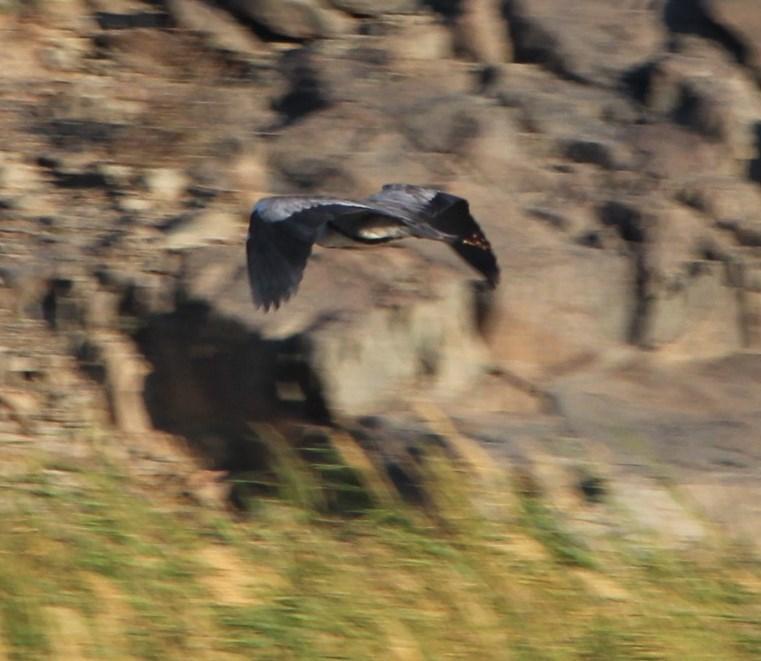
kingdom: Animalia
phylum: Chordata
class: Aves
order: Pelecaniformes
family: Ardeidae
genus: Ardea
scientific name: Ardea cinerea
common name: Grey heron
